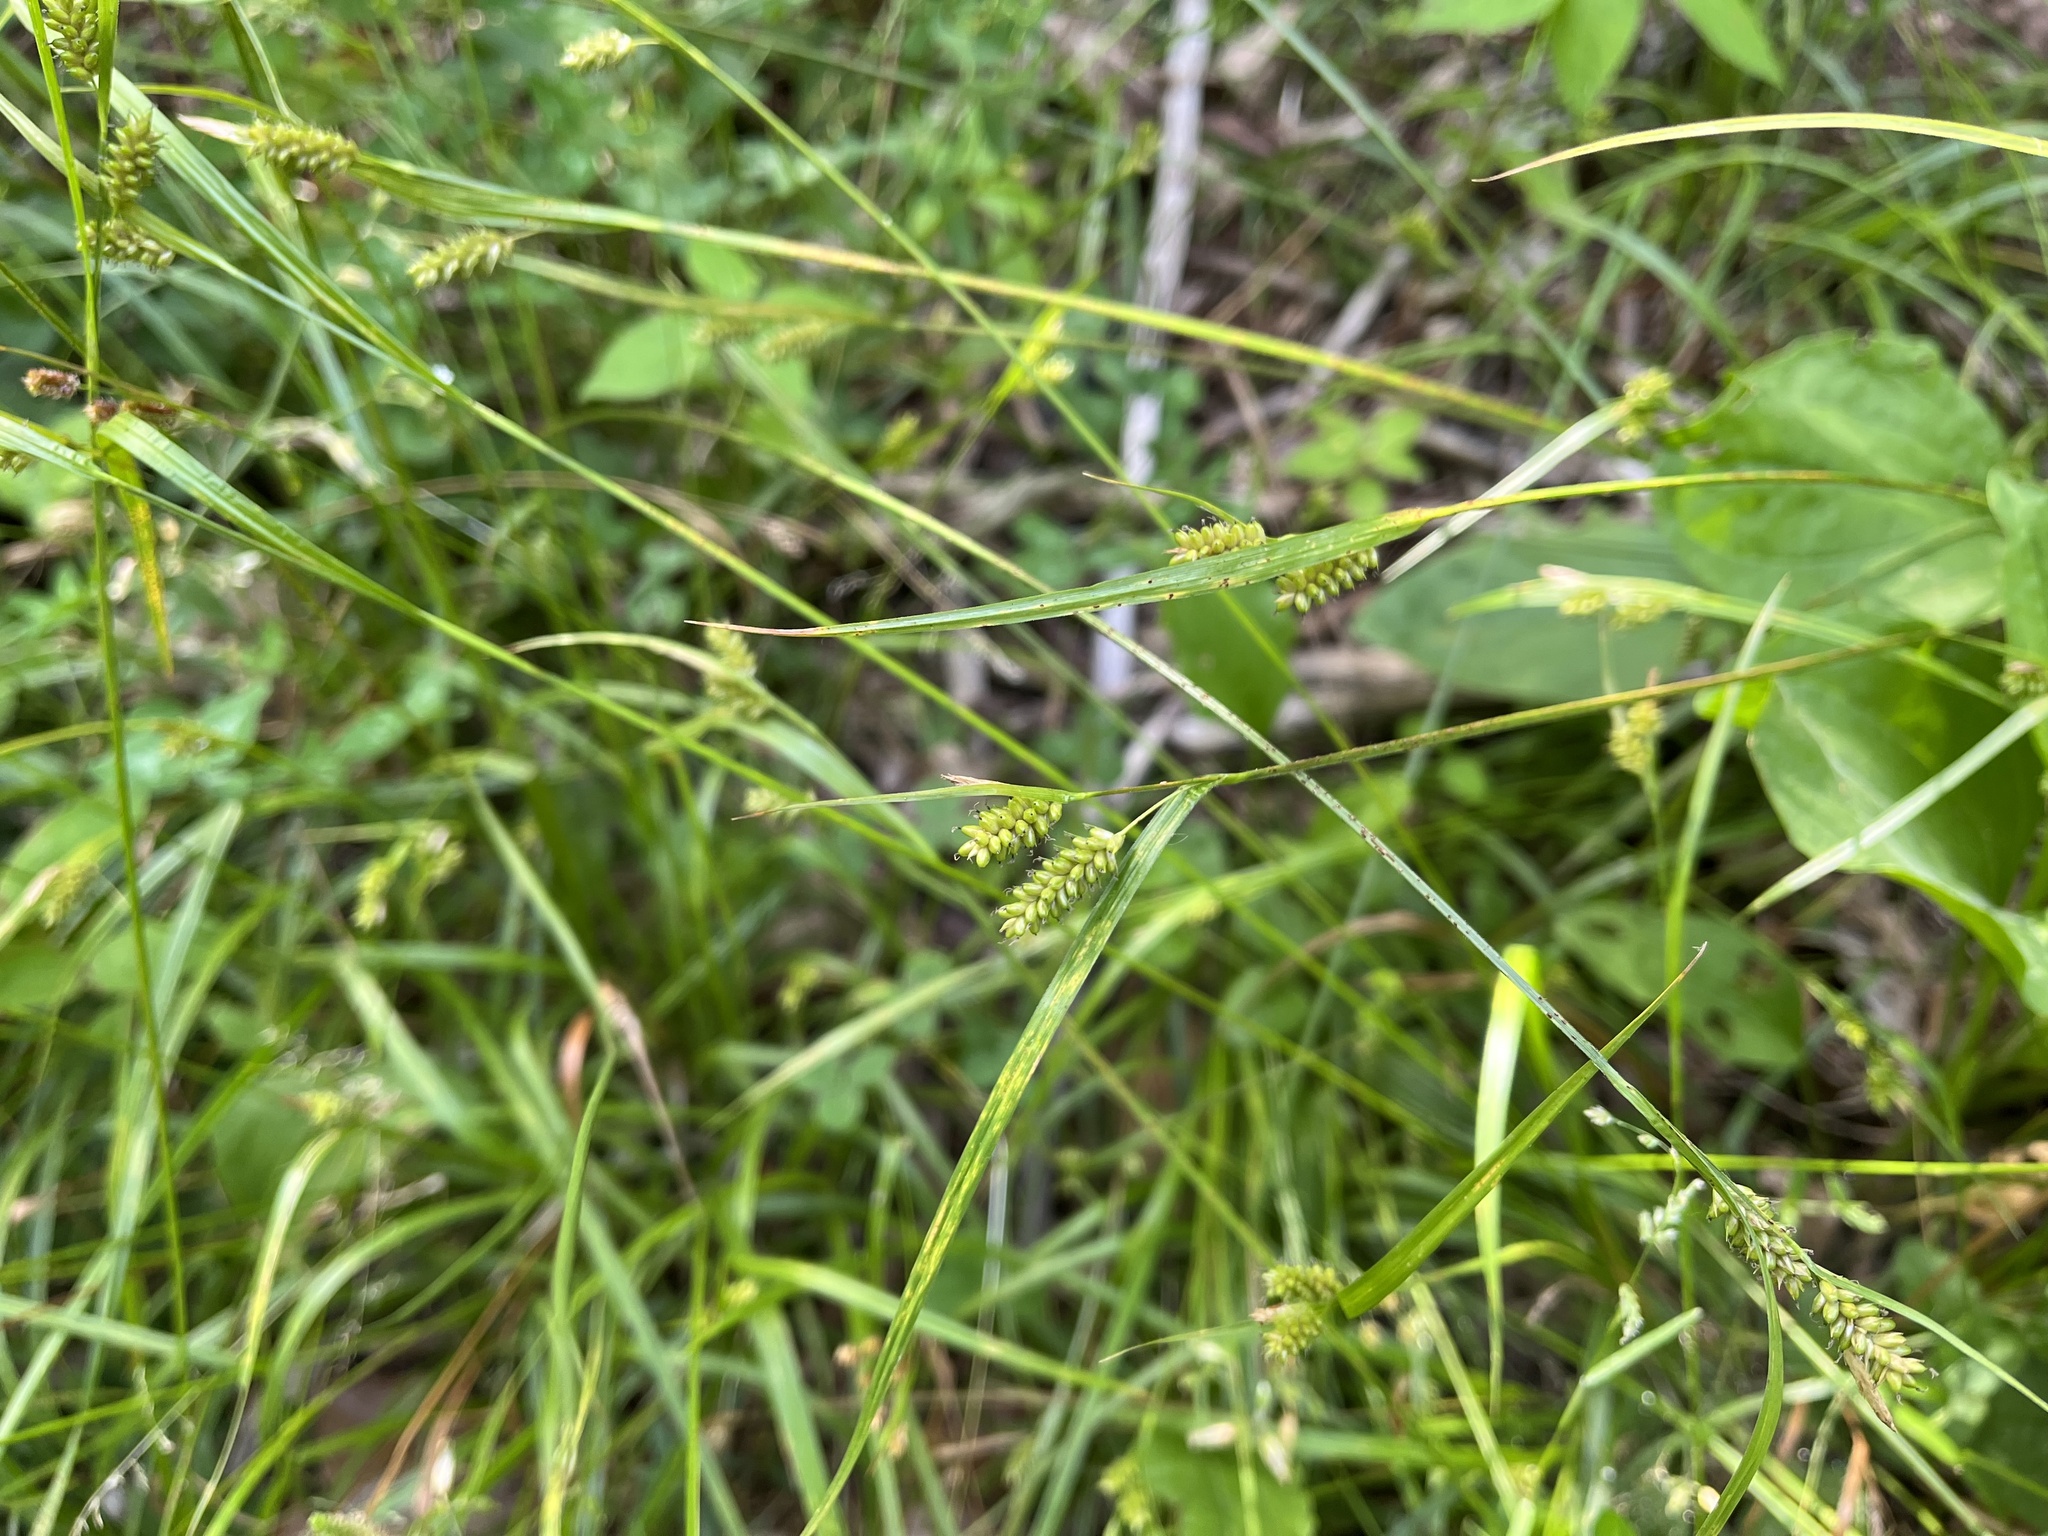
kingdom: Plantae
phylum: Tracheophyta
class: Liliopsida
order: Poales
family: Cyperaceae
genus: Carex
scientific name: Carex pallescens
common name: Pale sedge
